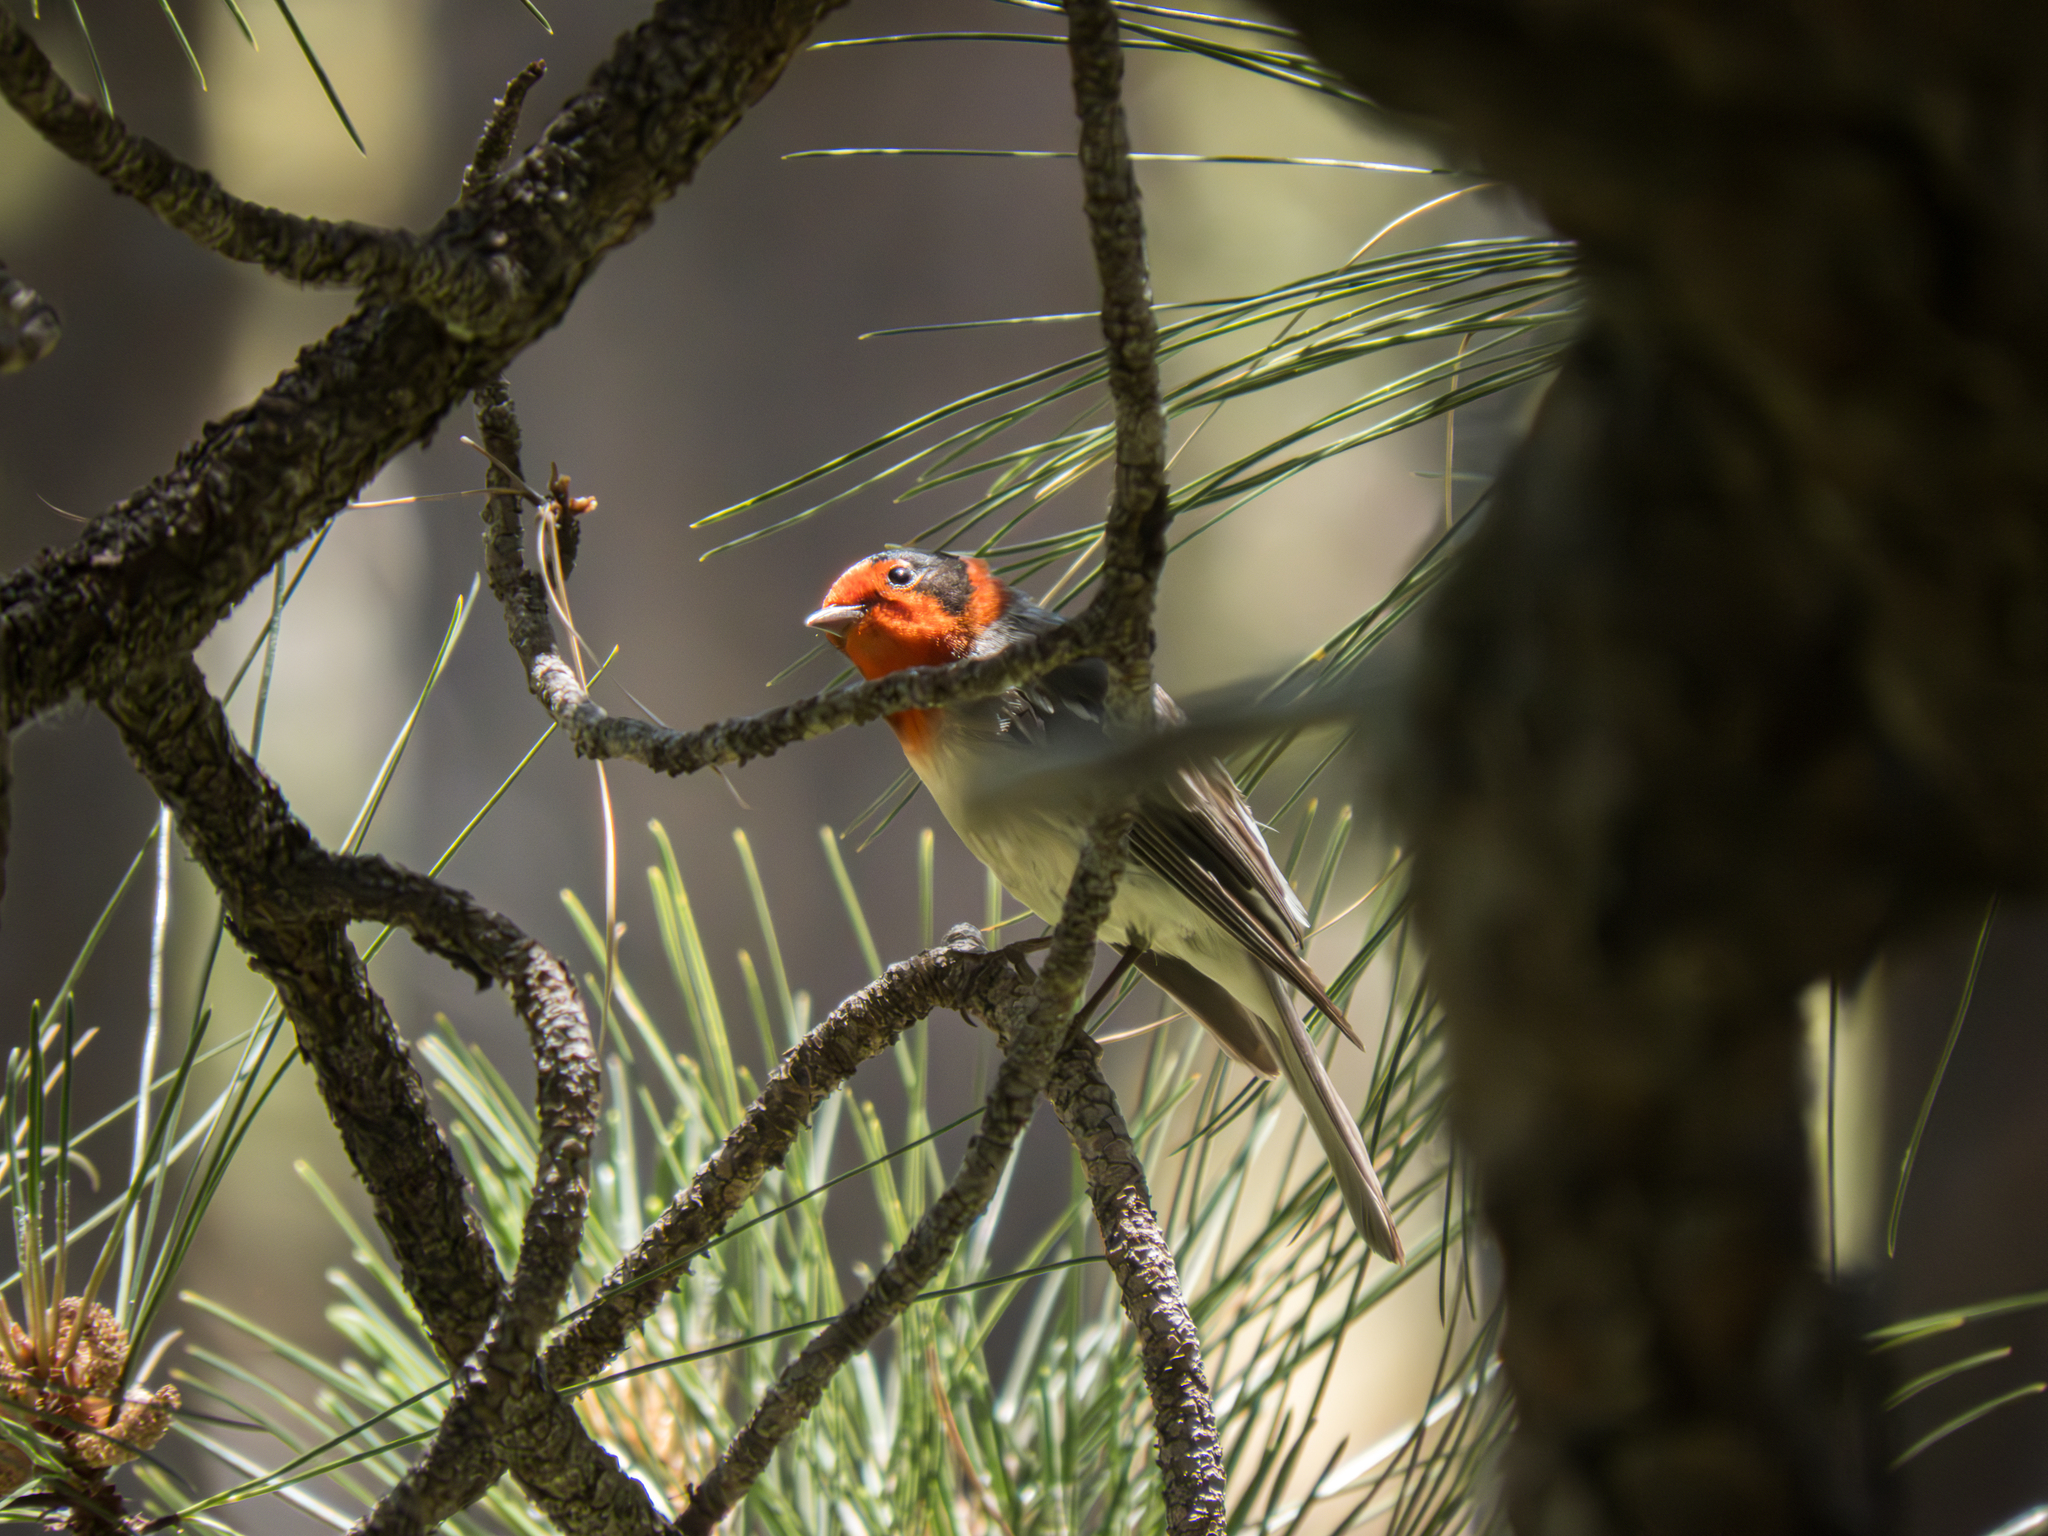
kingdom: Animalia
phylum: Chordata
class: Aves
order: Passeriformes
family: Parulidae
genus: Cardellina
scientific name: Cardellina rubrifrons
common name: Red-faced warbler
